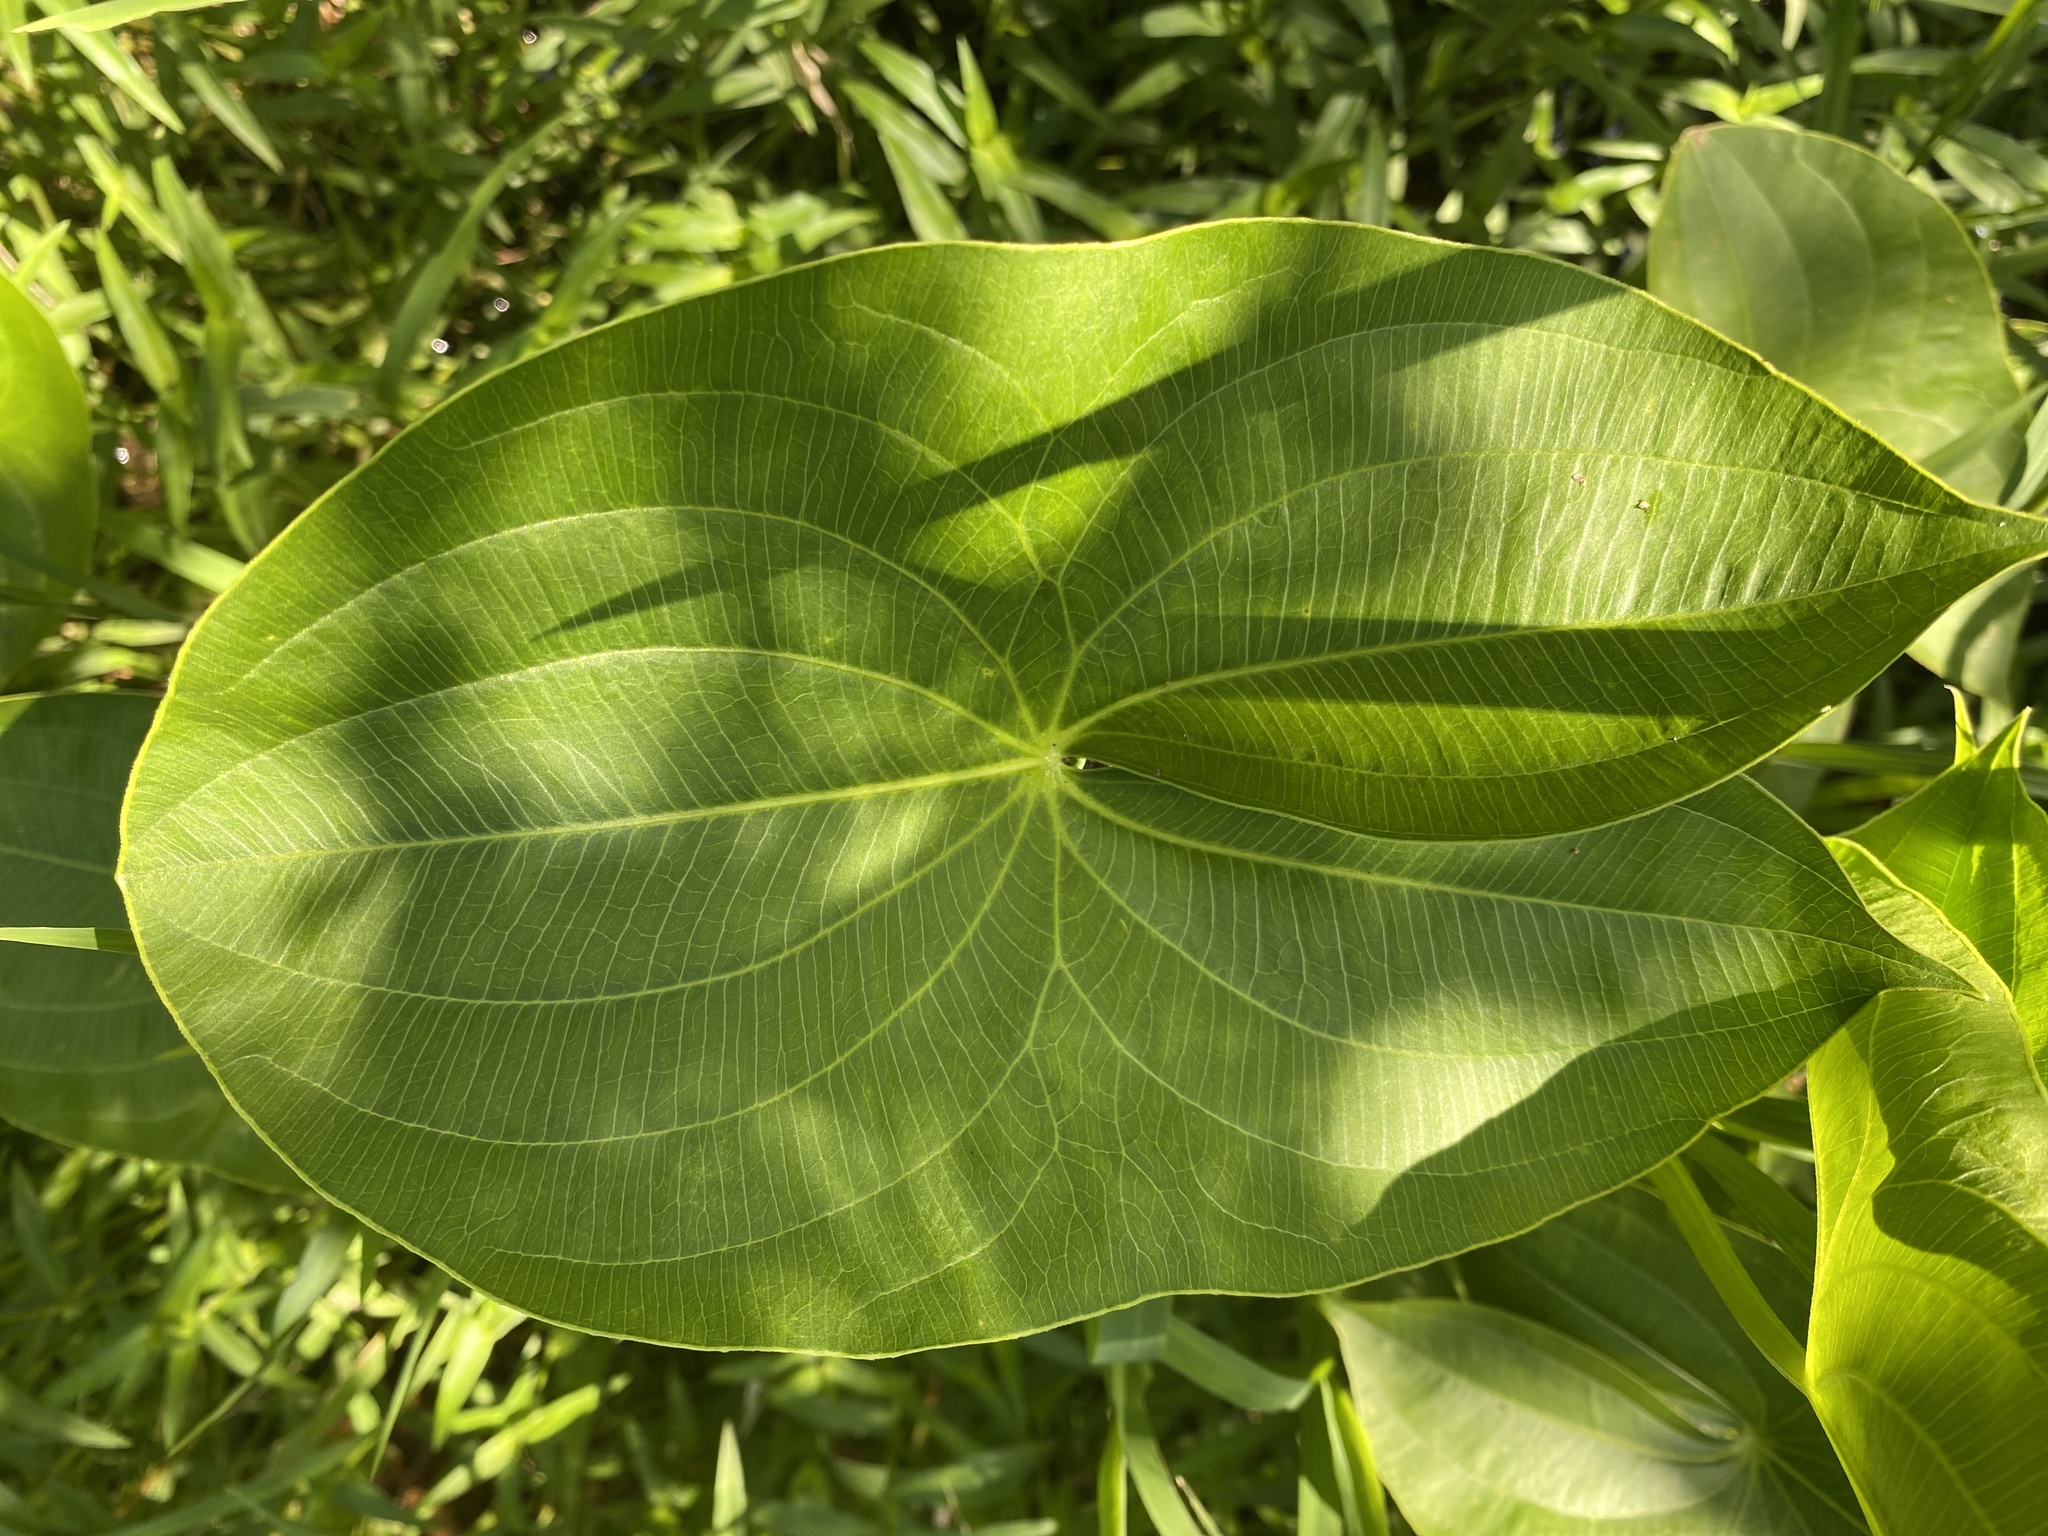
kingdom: Plantae
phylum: Tracheophyta
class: Liliopsida
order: Alismatales
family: Alismataceae
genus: Sagittaria
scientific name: Sagittaria latifolia
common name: Duck-potato
